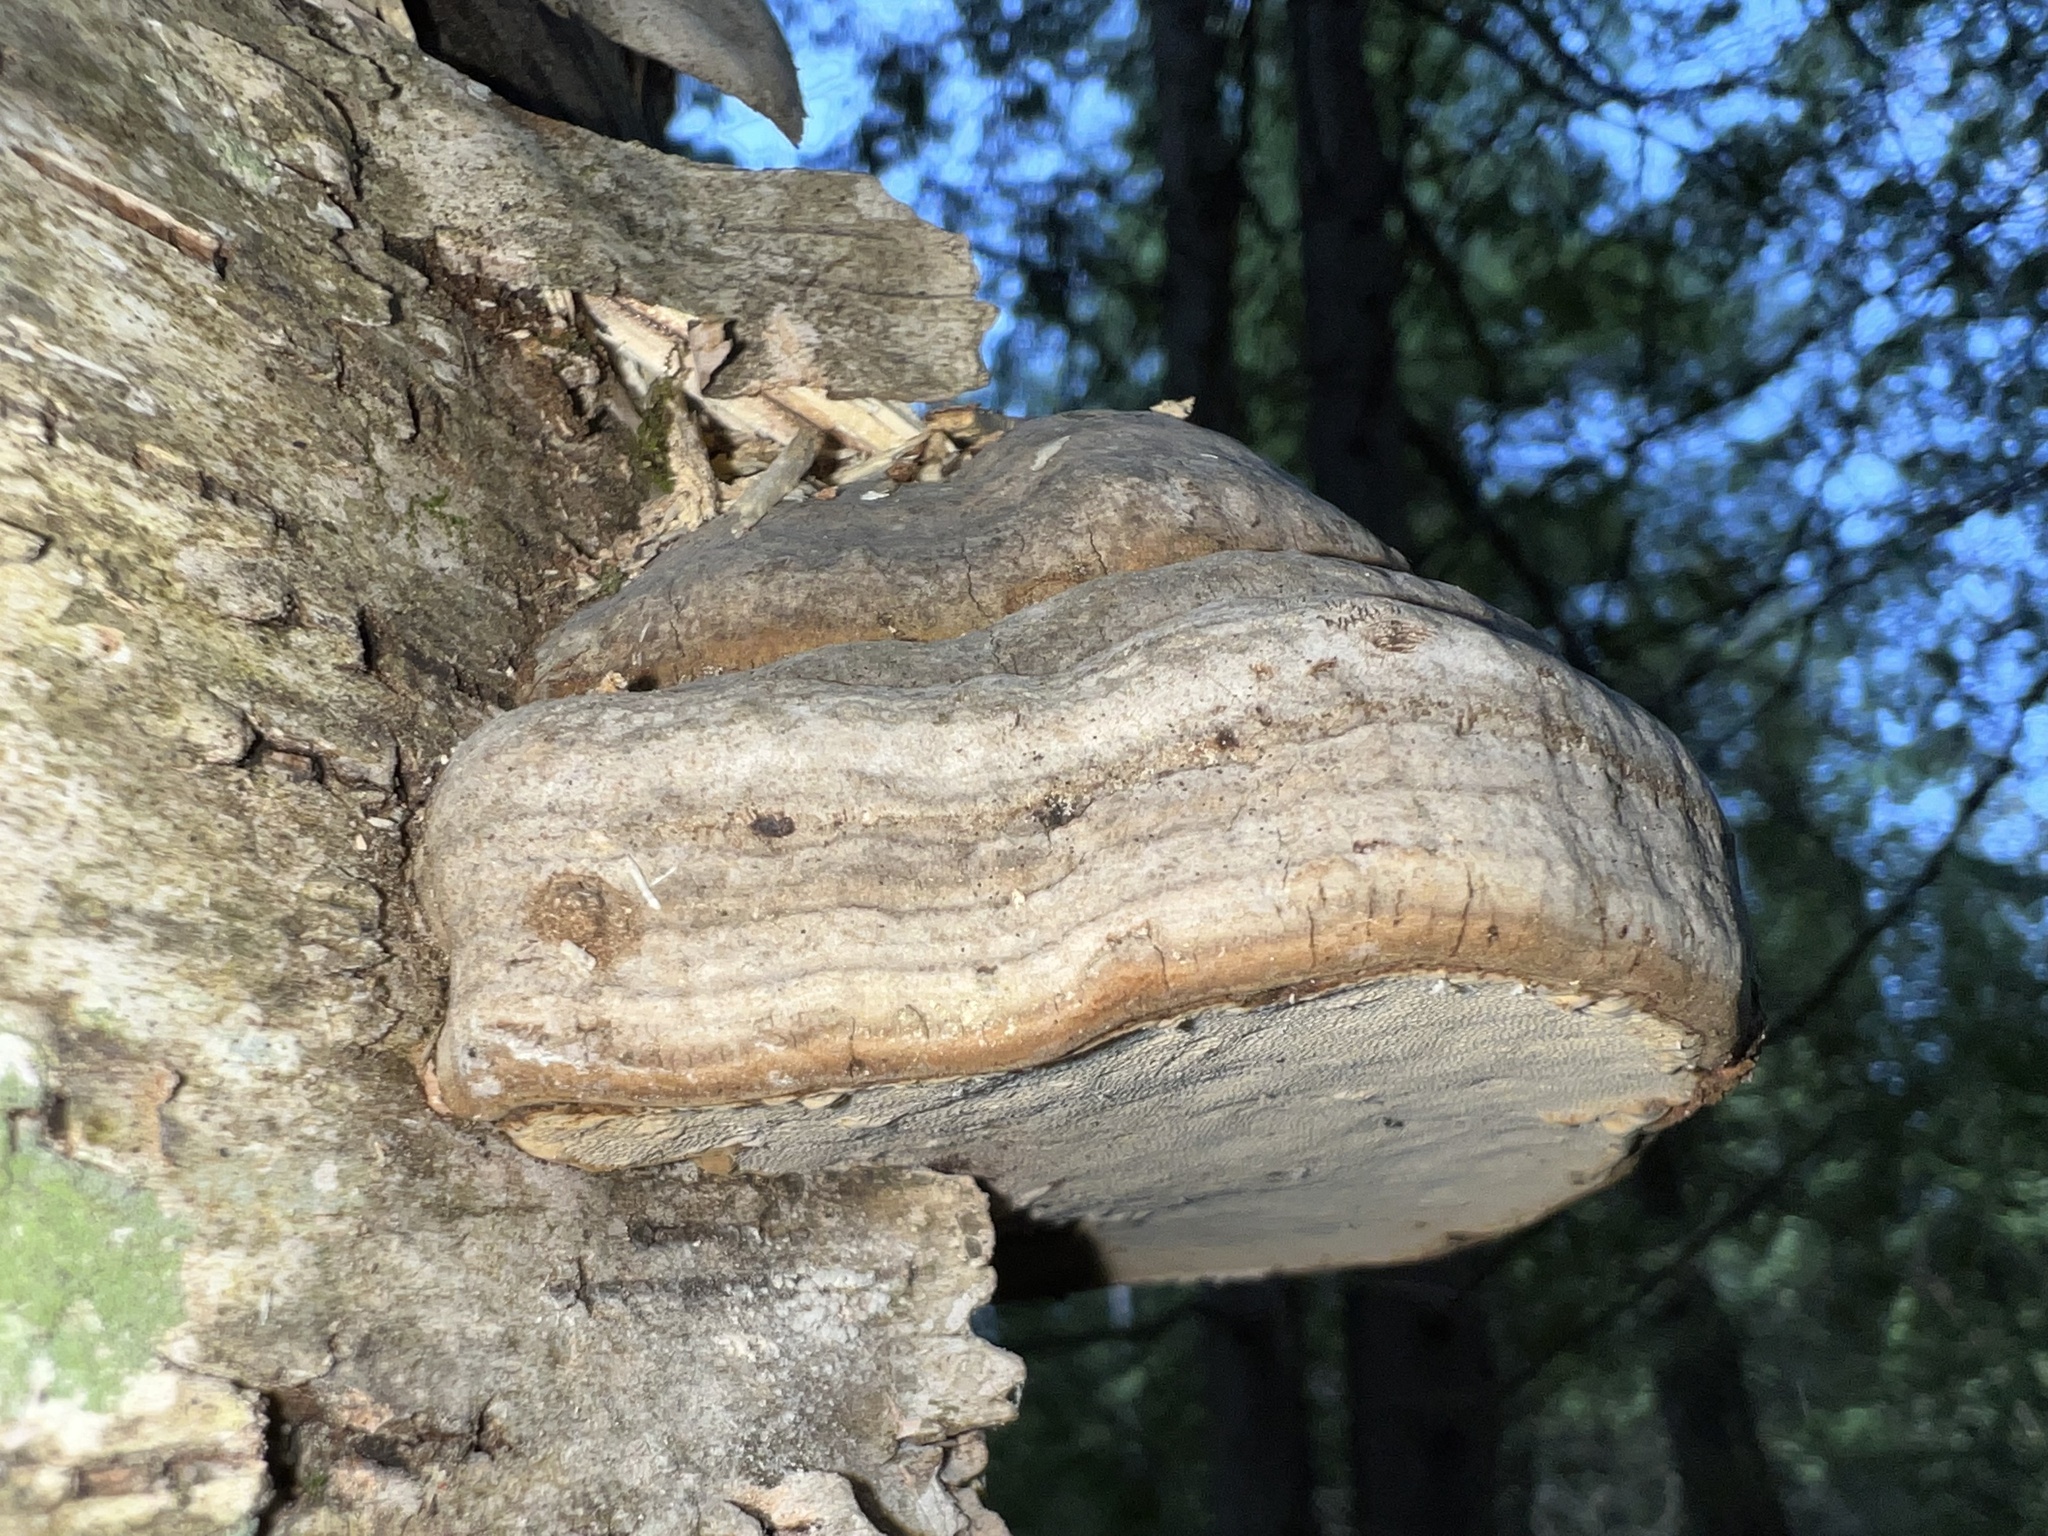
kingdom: Fungi
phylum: Basidiomycota
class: Agaricomycetes
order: Polyporales
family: Polyporaceae
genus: Fomes
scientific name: Fomes fomentarius
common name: Hoof fungus
